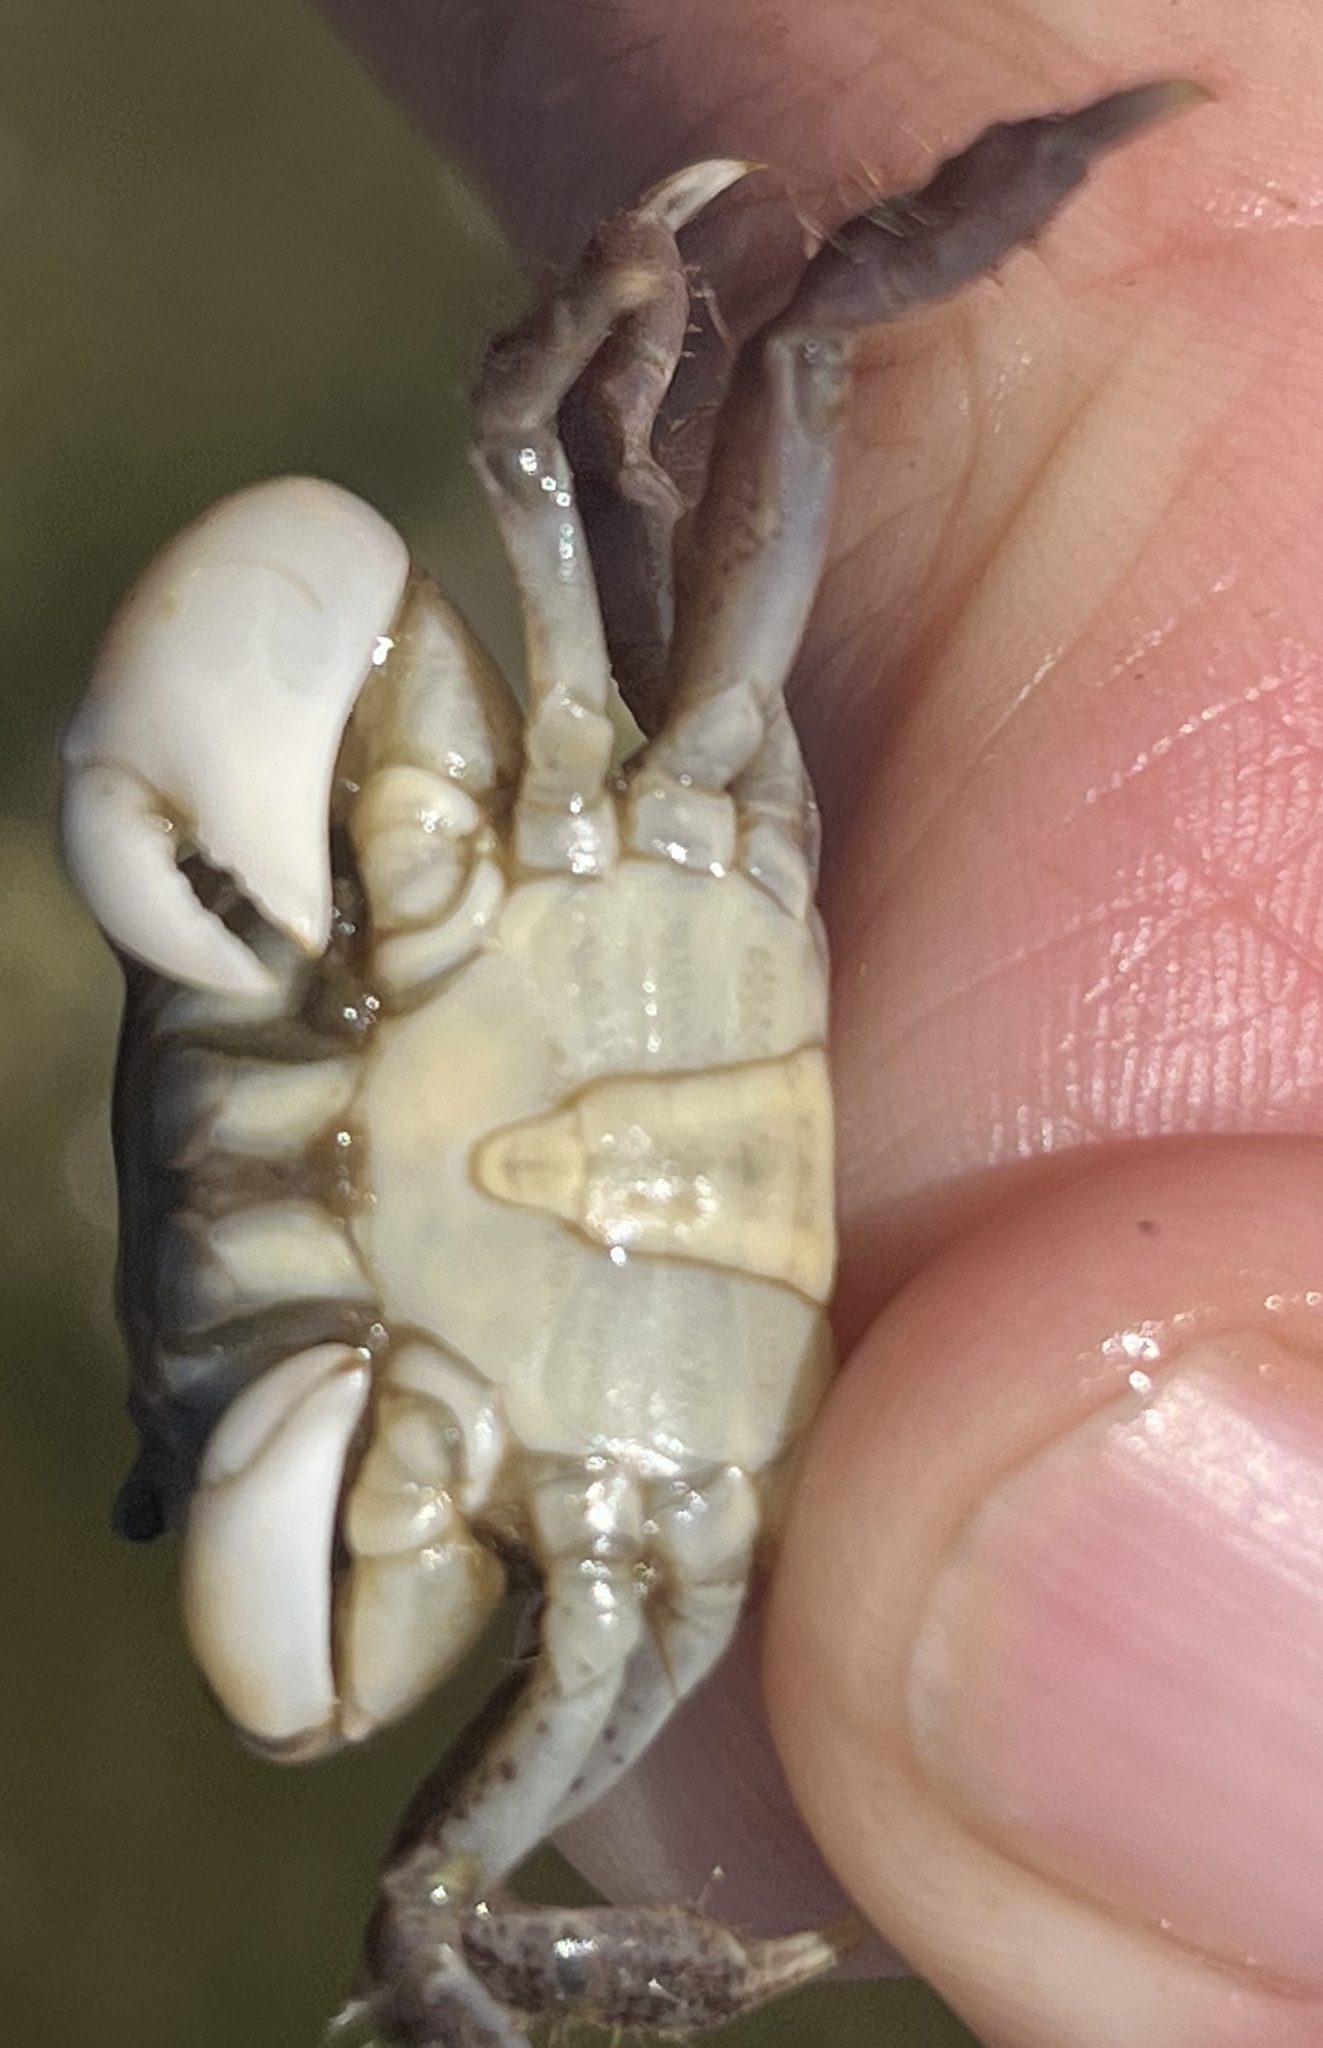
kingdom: Animalia
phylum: Arthropoda
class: Malacostraca
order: Decapoda
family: Varunidae
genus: Hemigrapsus
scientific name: Hemigrapsus oregonensis
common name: Yellow shore crab
